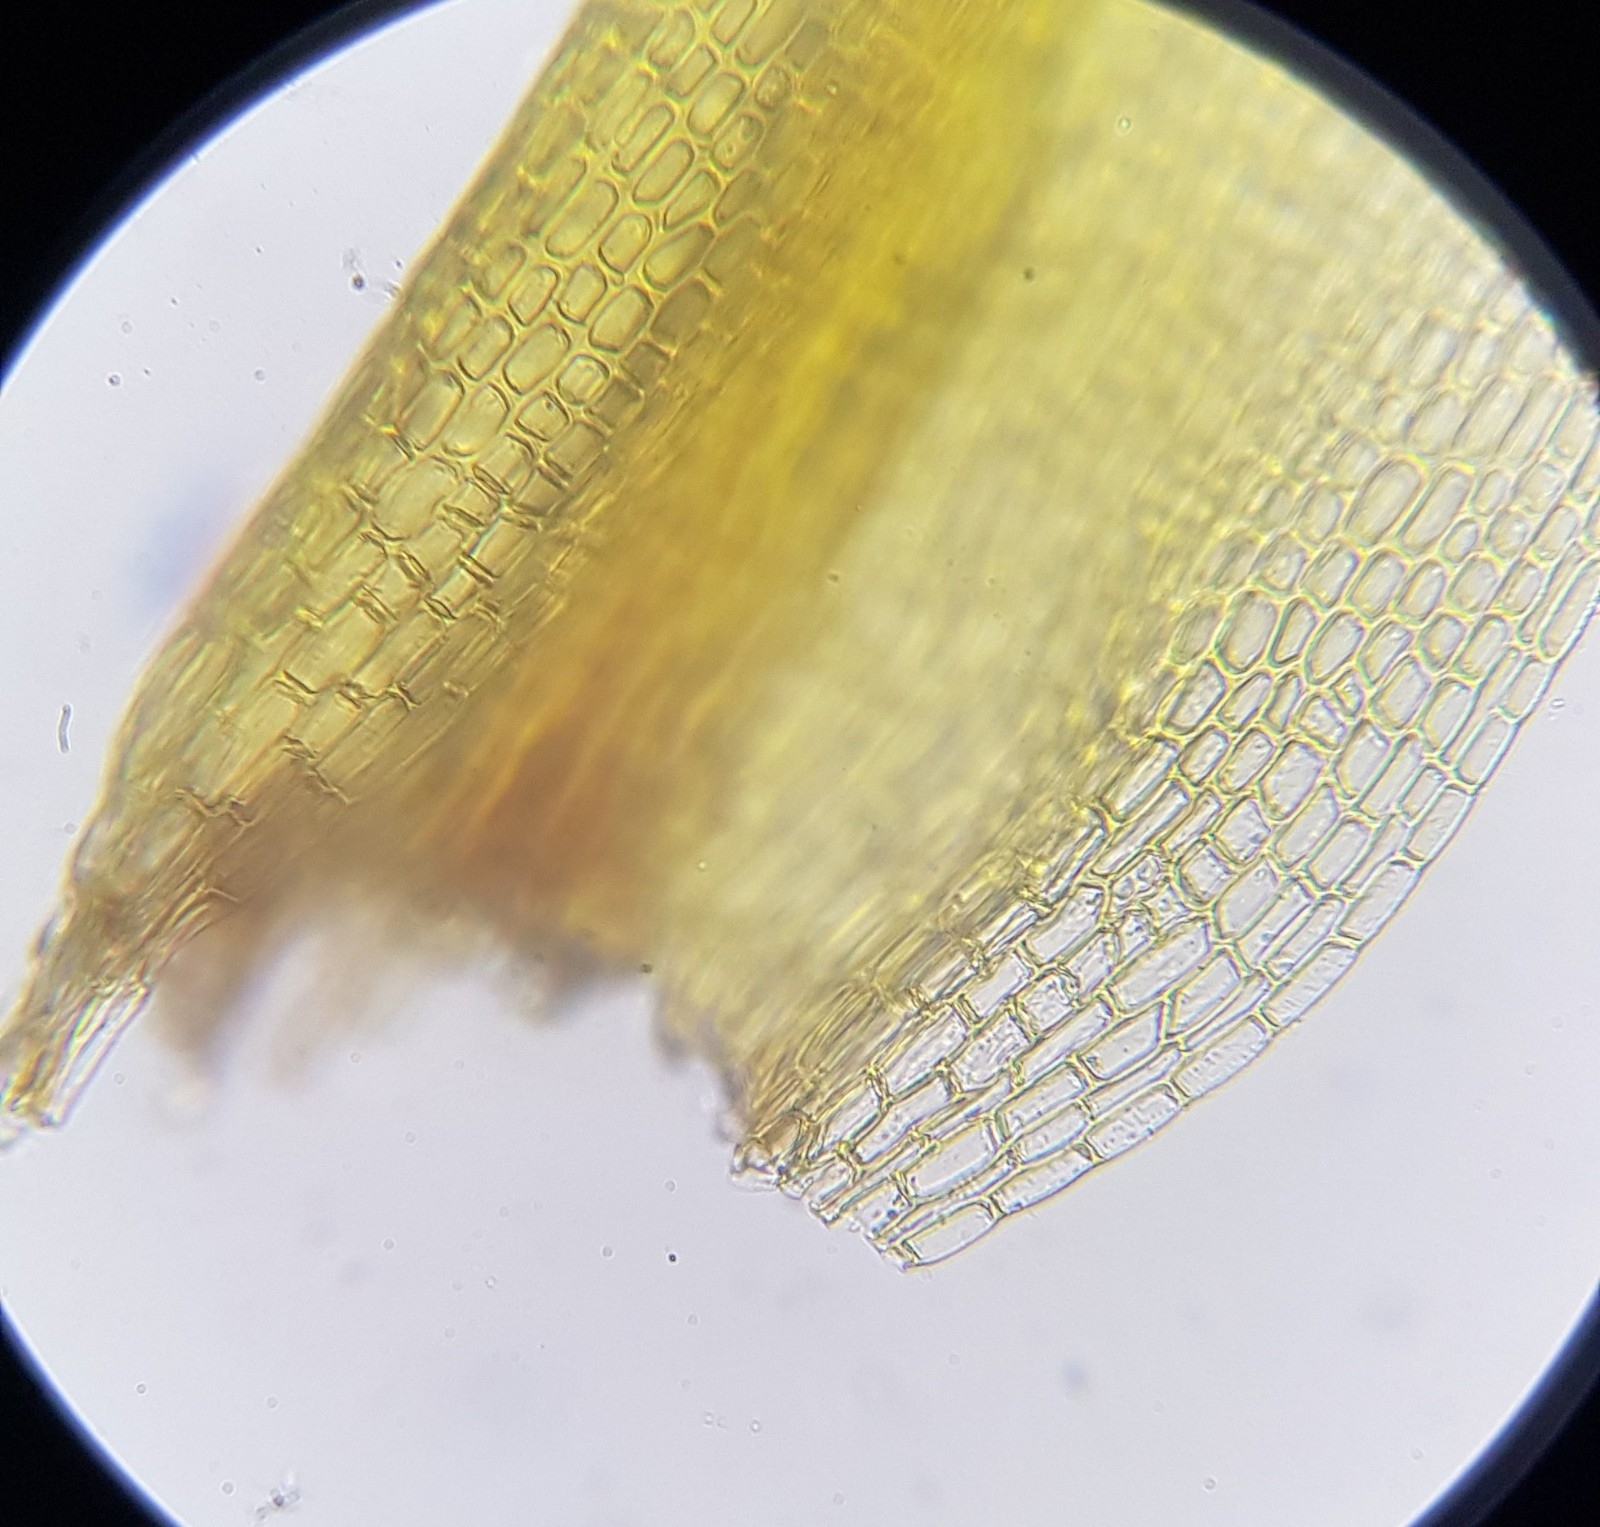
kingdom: Plantae
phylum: Bryophyta
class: Bryopsida
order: Pottiales
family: Pottiaceae
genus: Trichostomum
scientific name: Trichostomum crispulum
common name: Curly crisp-moss
